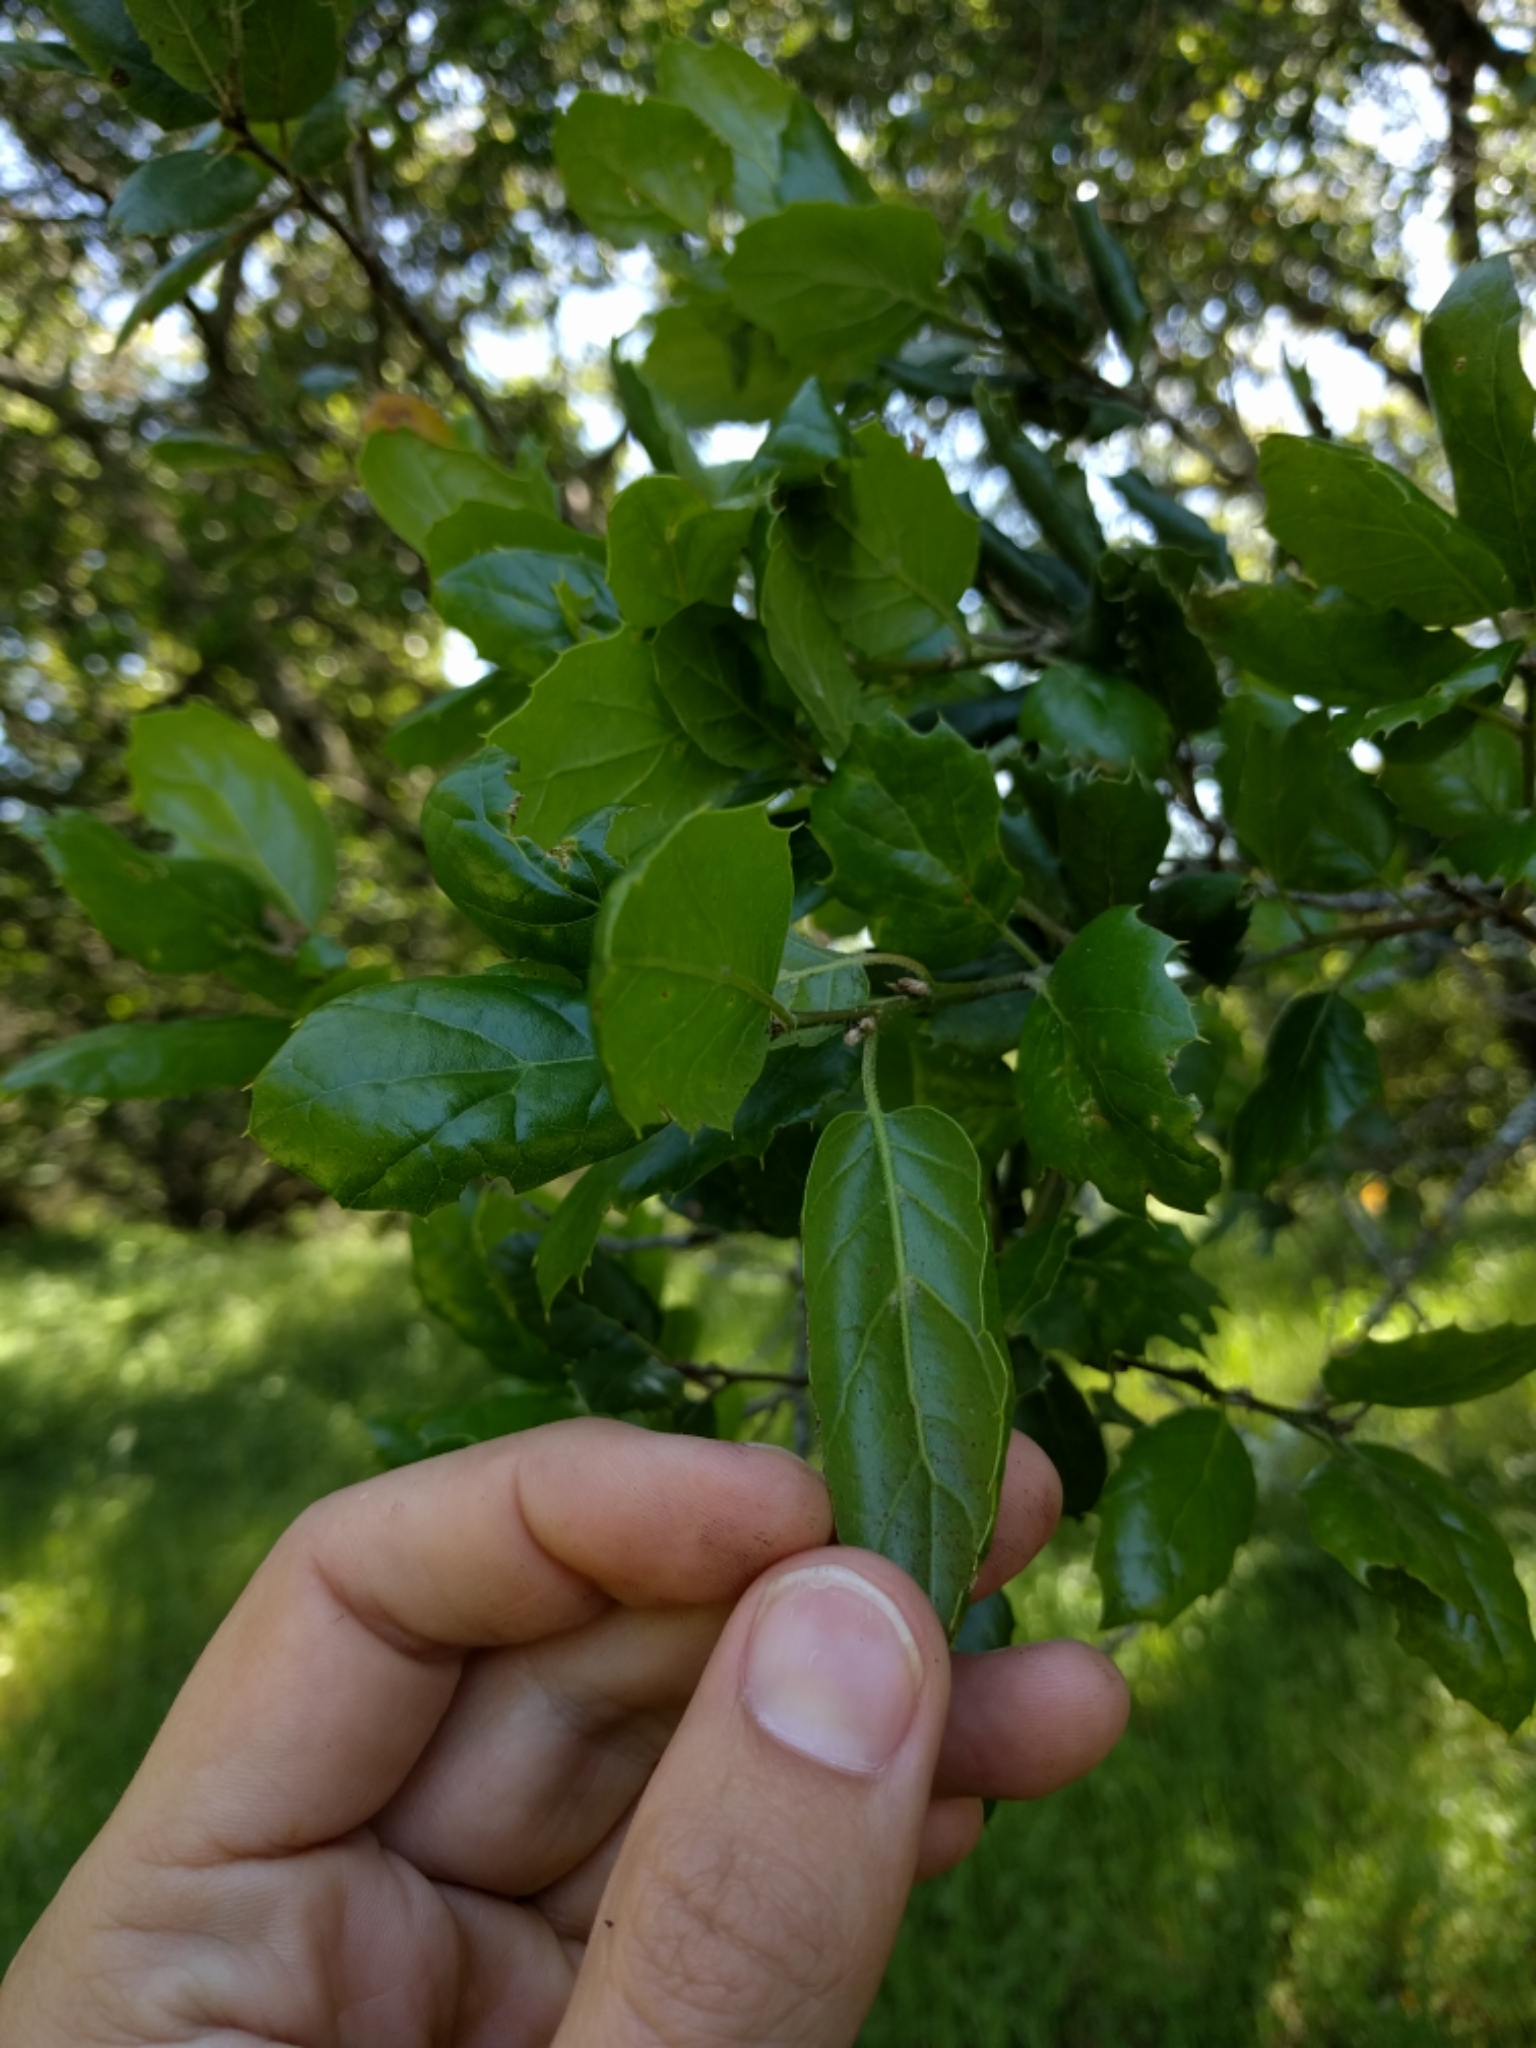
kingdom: Plantae
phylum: Tracheophyta
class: Magnoliopsida
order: Fagales
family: Fagaceae
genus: Quercus
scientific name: Quercus agrifolia
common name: California live oak
